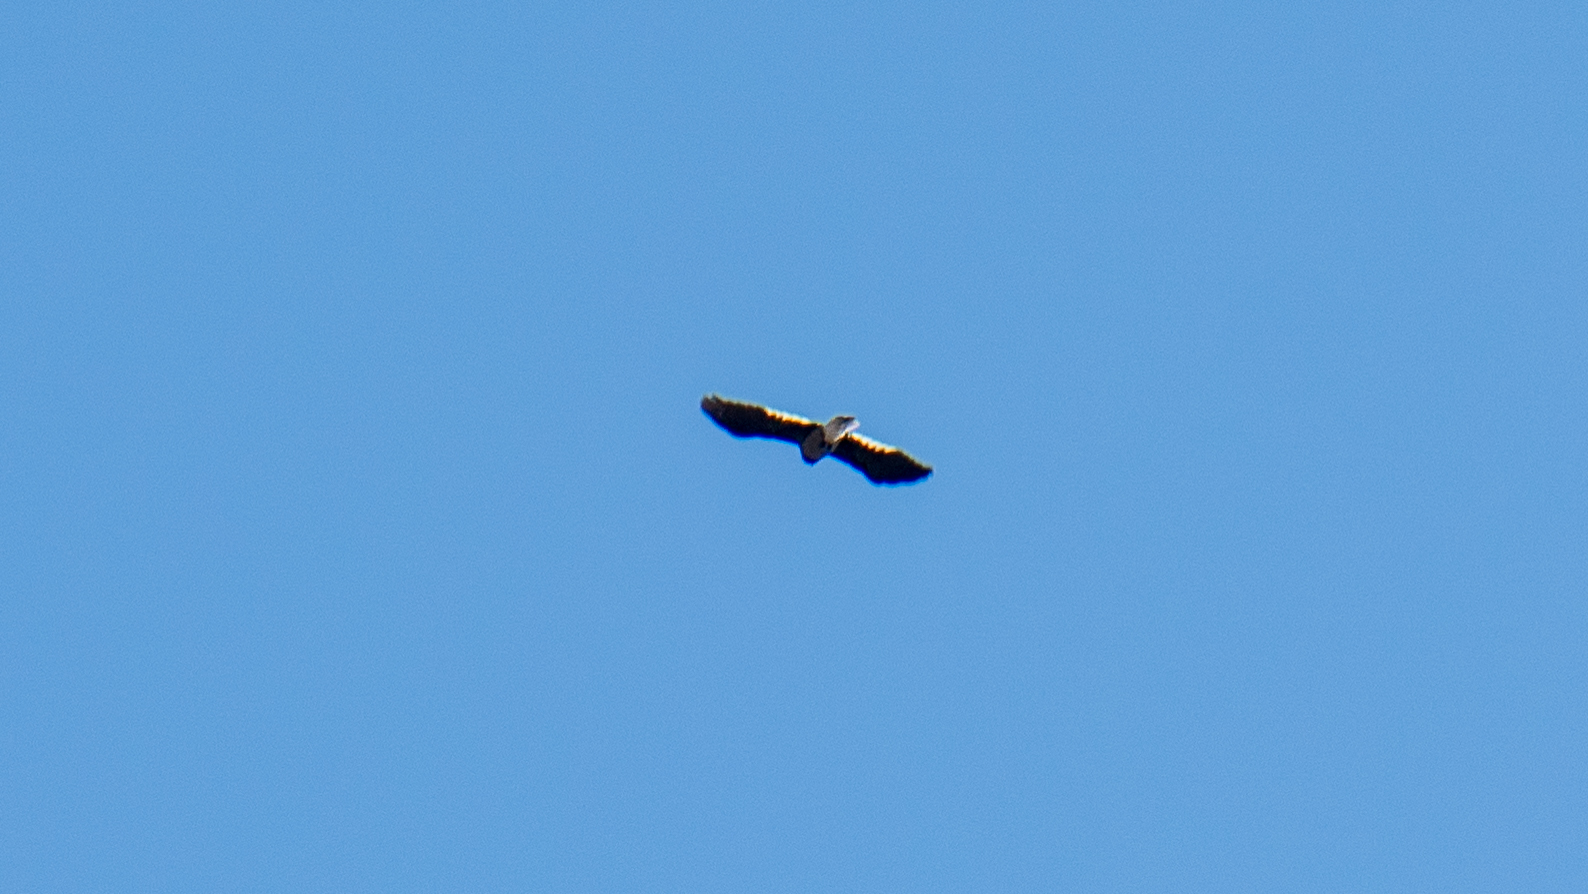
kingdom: Animalia
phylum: Chordata
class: Aves
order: Passeriformes
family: Corvidae
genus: Nucifraga
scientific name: Nucifraga columbiana
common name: Clark's nutcracker
